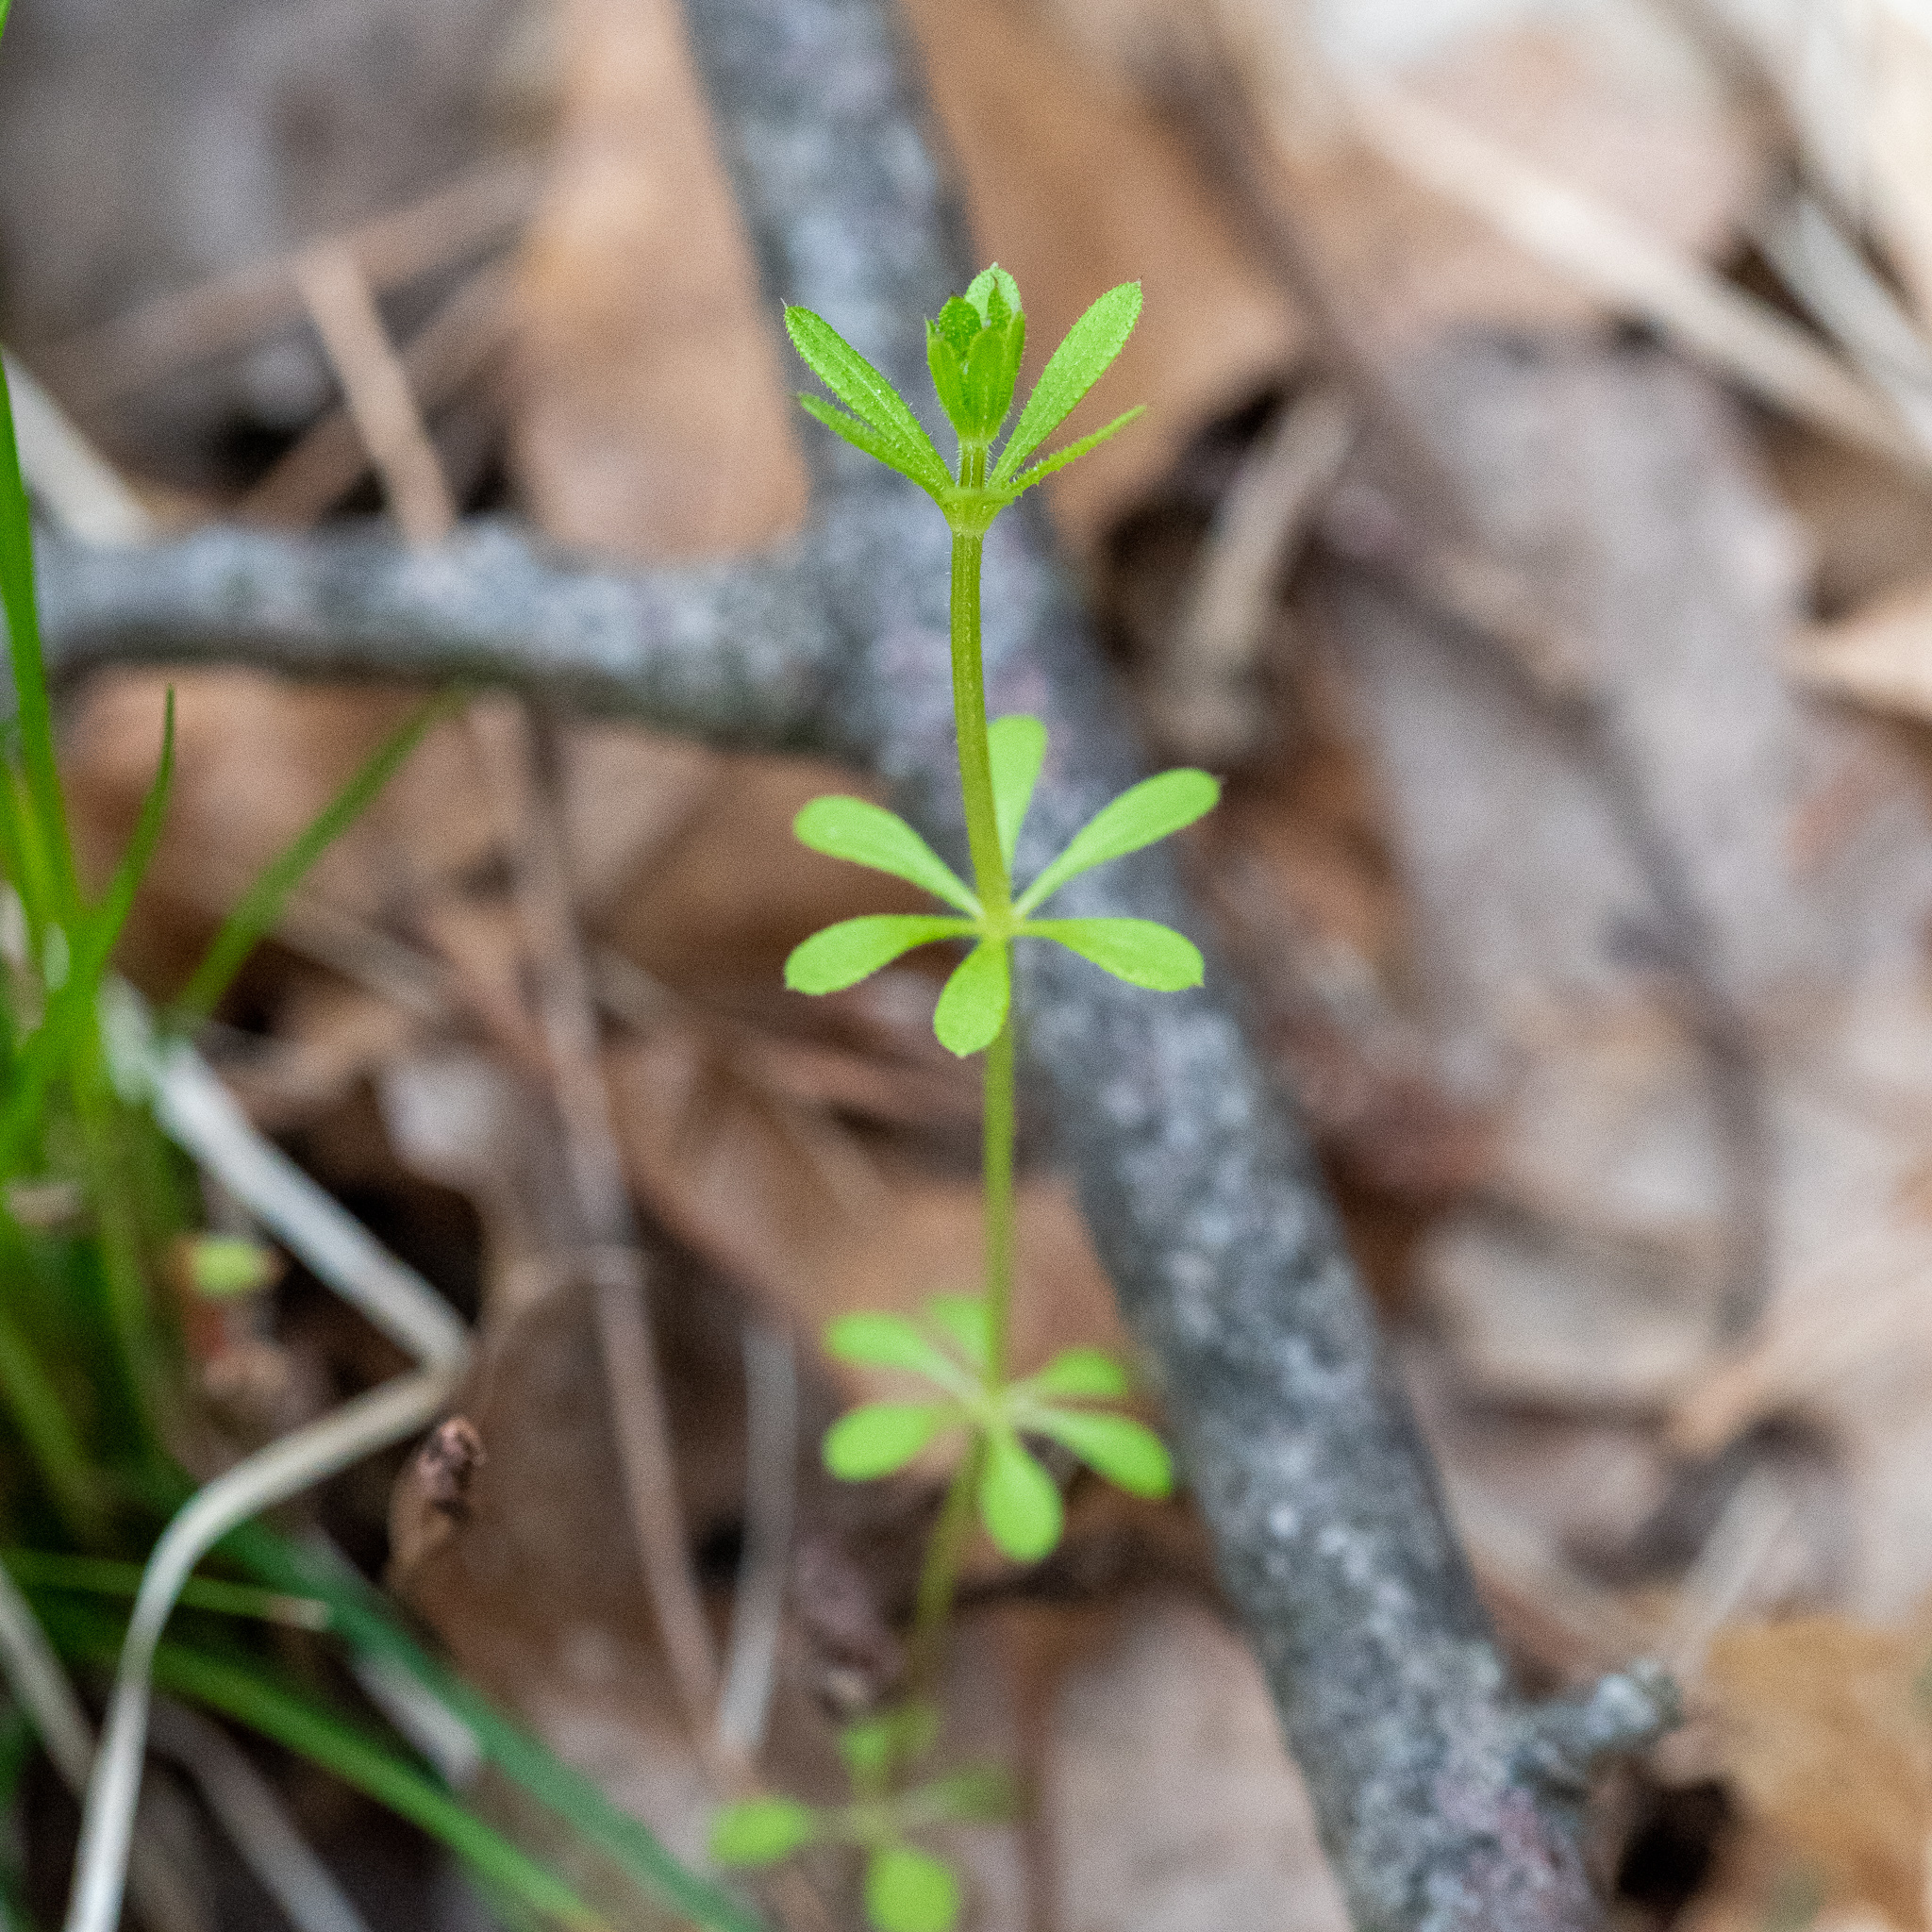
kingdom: Plantae
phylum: Tracheophyta
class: Magnoliopsida
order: Gentianales
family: Rubiaceae
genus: Galium
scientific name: Galium aparine
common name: Cleavers
